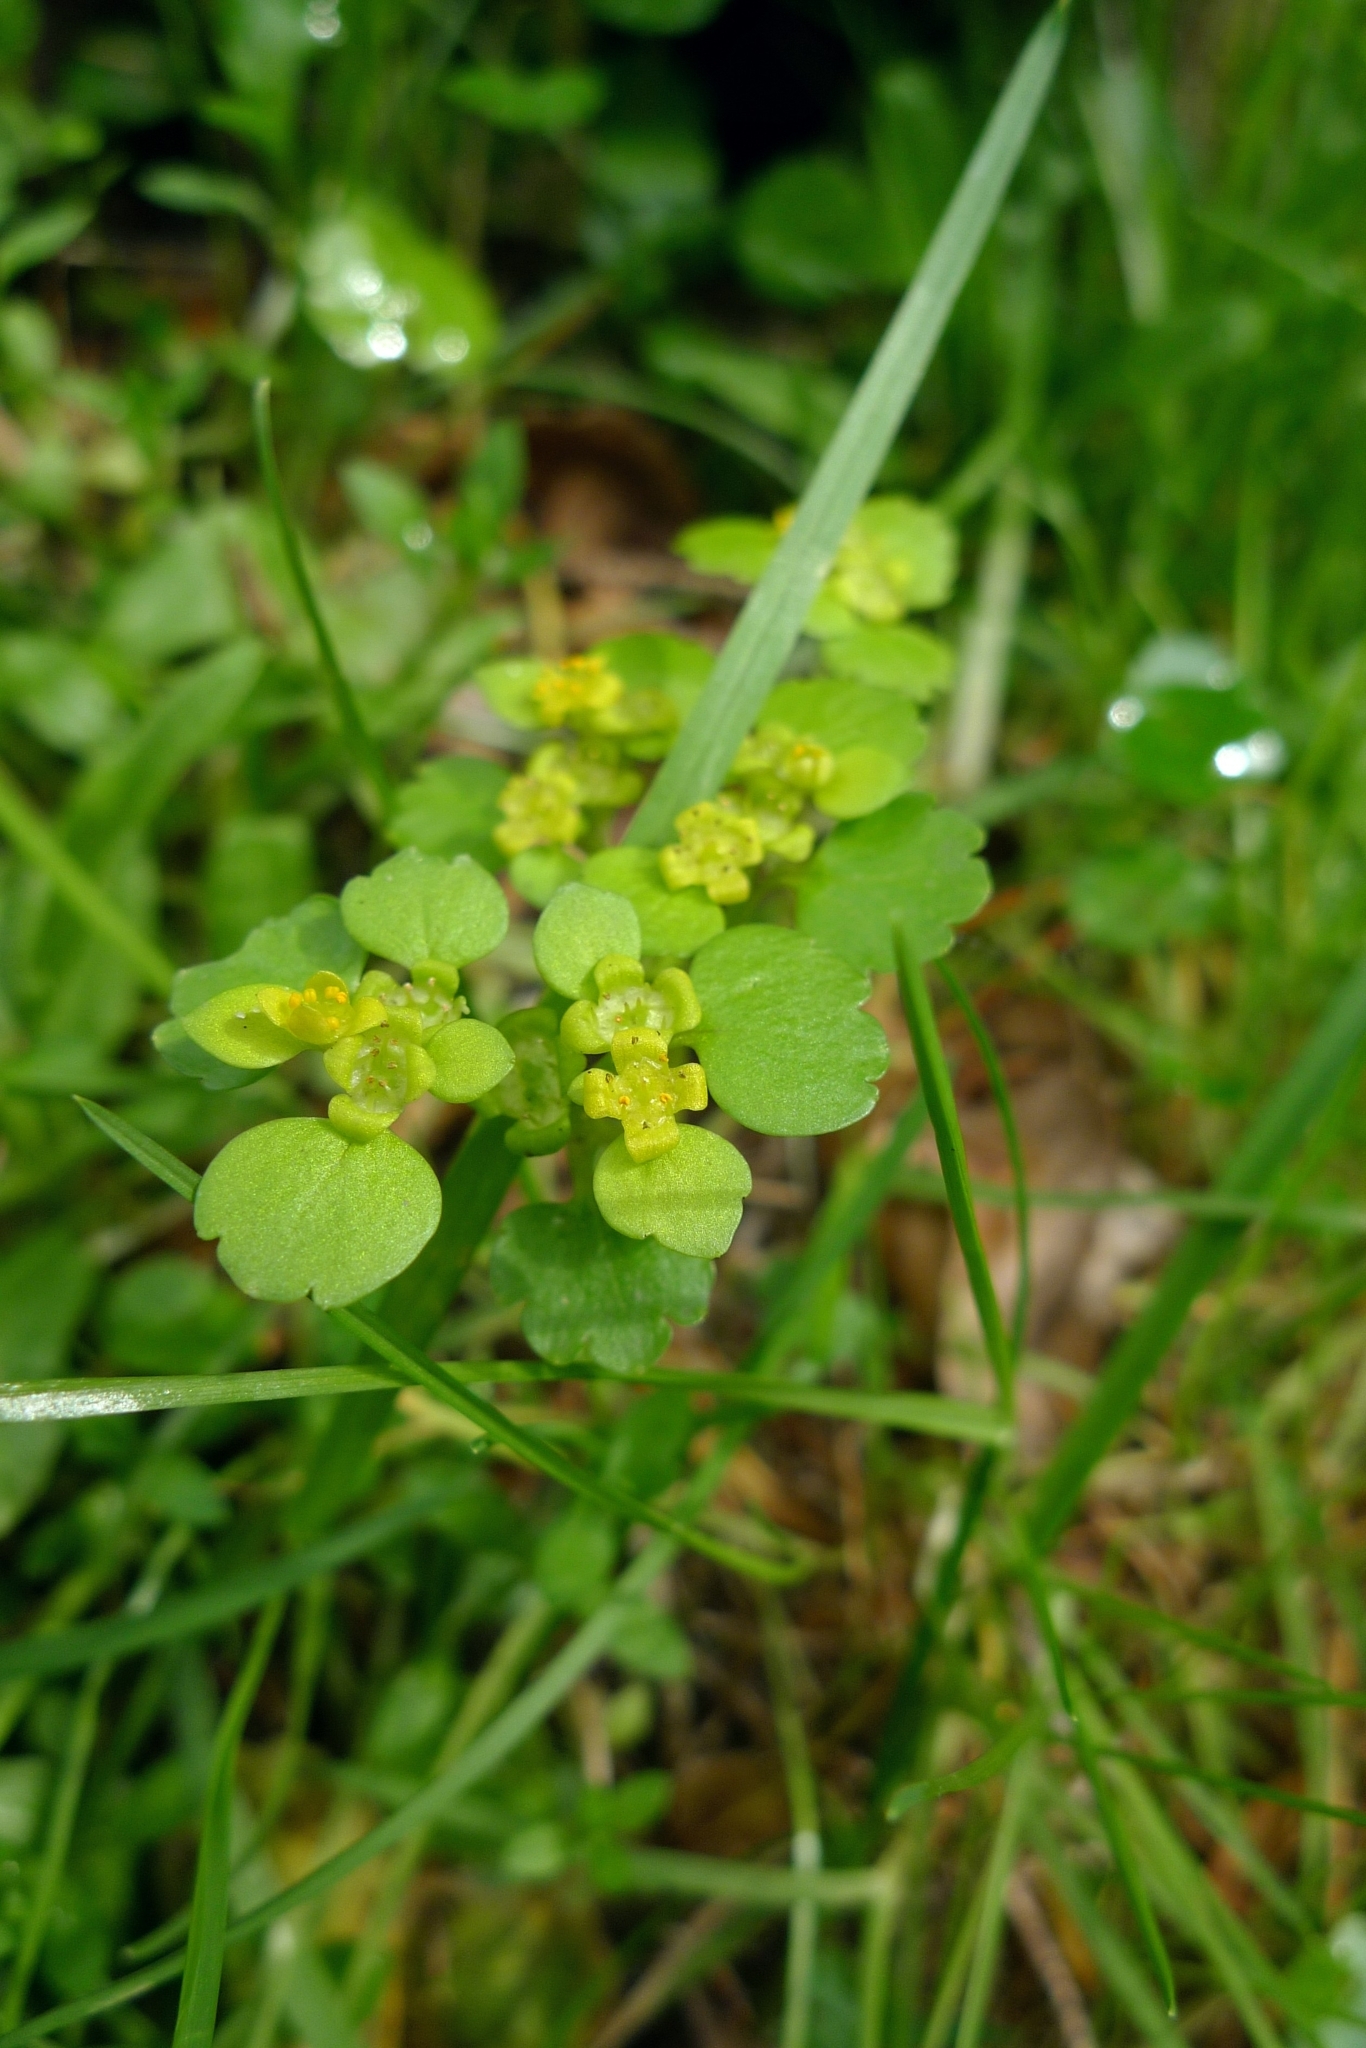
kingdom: Plantae
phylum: Tracheophyta
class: Magnoliopsida
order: Saxifragales
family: Saxifragaceae
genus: Chrysosplenium
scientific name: Chrysosplenium alternifolium
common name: Alternate-leaved golden-saxifrage
